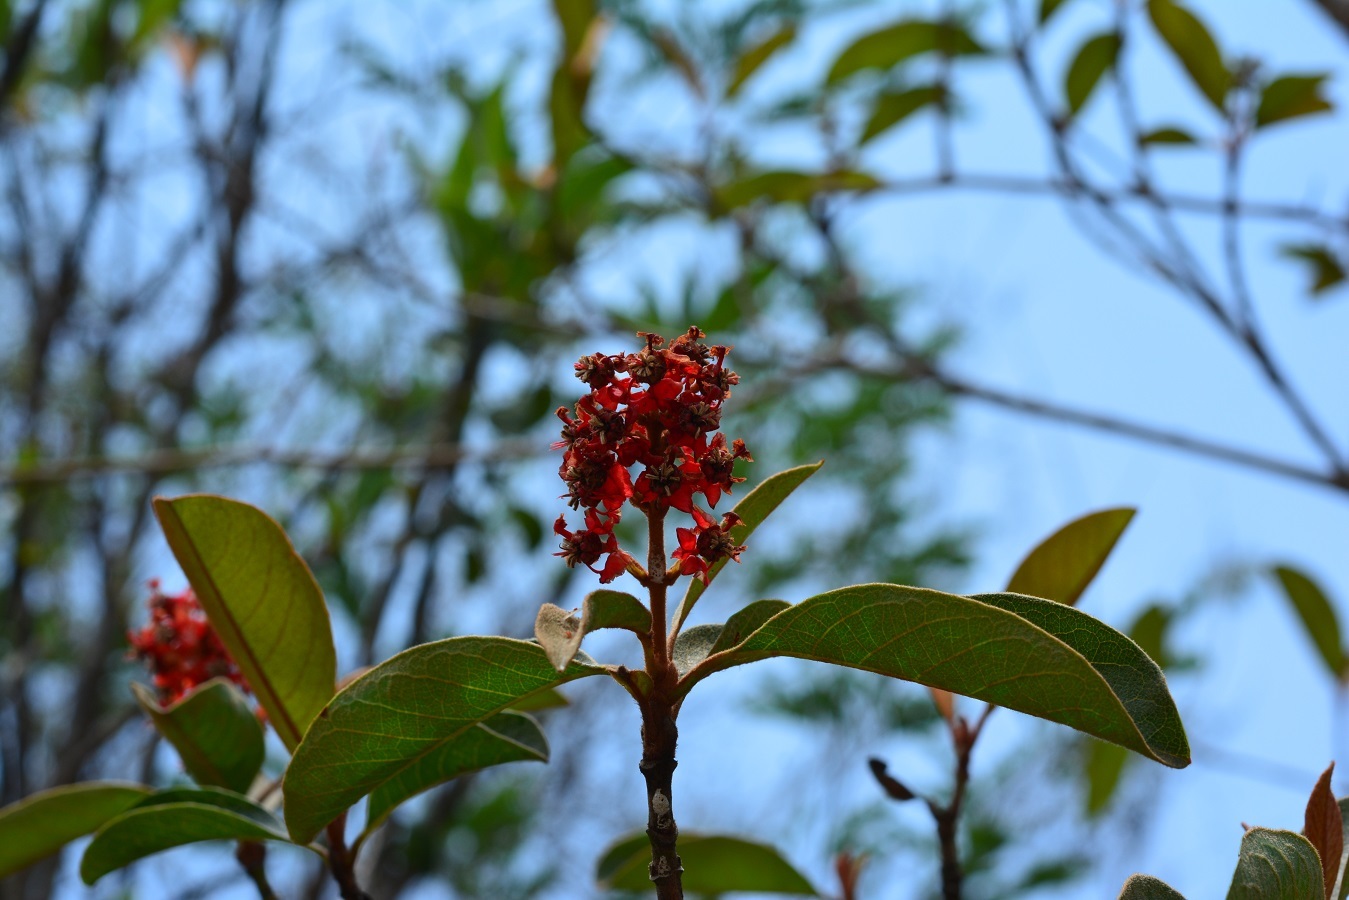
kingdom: Plantae
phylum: Tracheophyta
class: Magnoliopsida
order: Malpighiales
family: Malpighiaceae
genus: Byrsonima
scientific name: Byrsonima crassifolia
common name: Golden spoon
